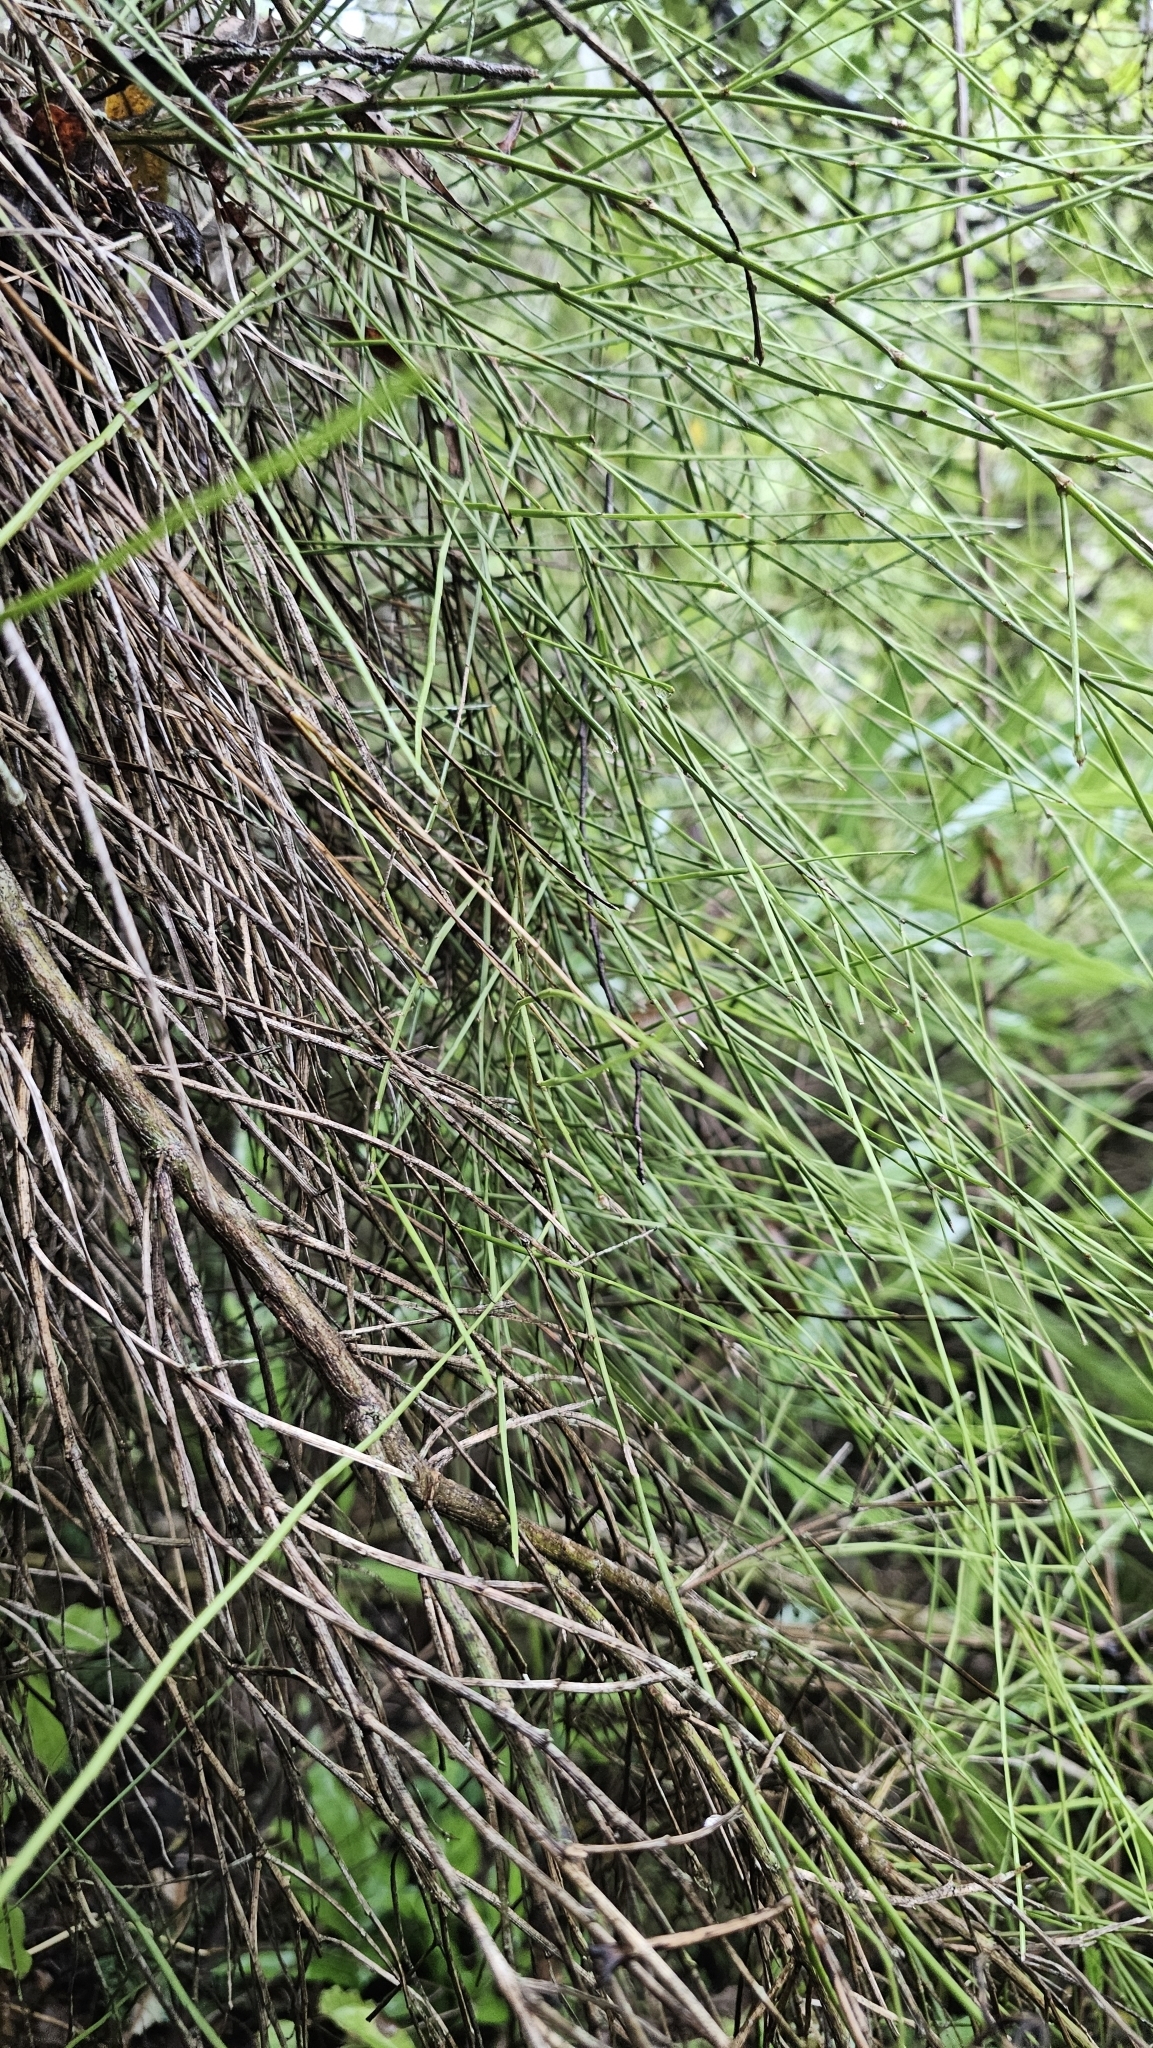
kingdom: Plantae
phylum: Tracheophyta
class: Magnoliopsida
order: Fabales
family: Fabaceae
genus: Carmichaelia
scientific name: Carmichaelia australis
